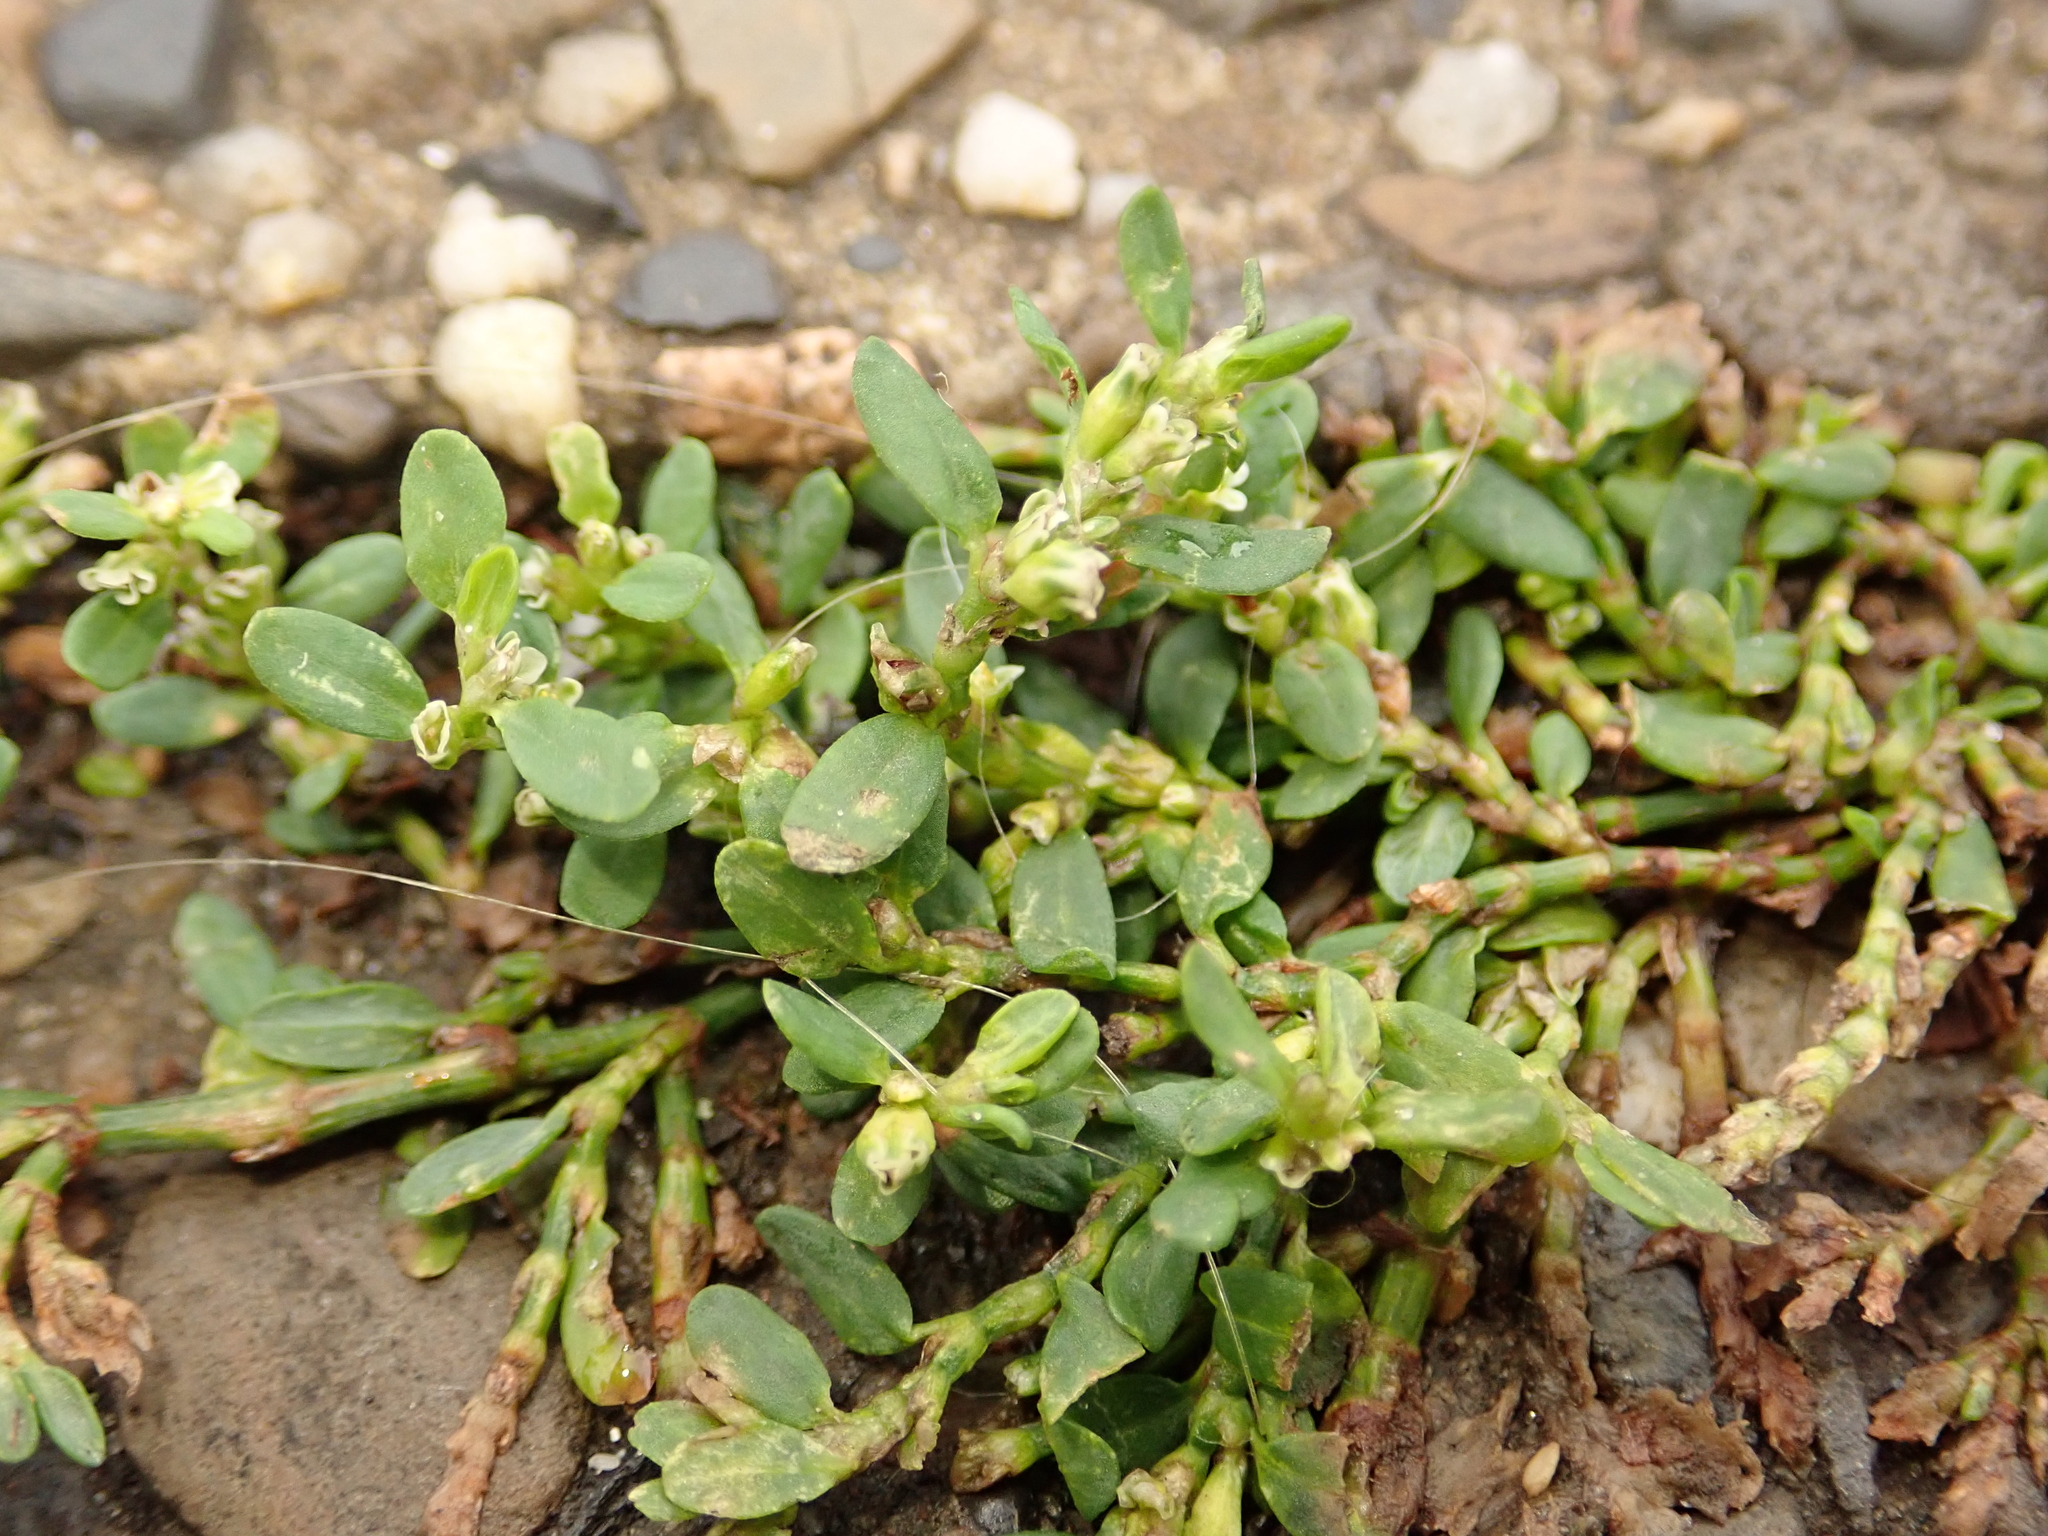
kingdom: Plantae
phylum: Tracheophyta
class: Magnoliopsida
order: Caryophyllales
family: Polygonaceae
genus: Polygonum
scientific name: Polygonum aviculare
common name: Prostrate knotweed
